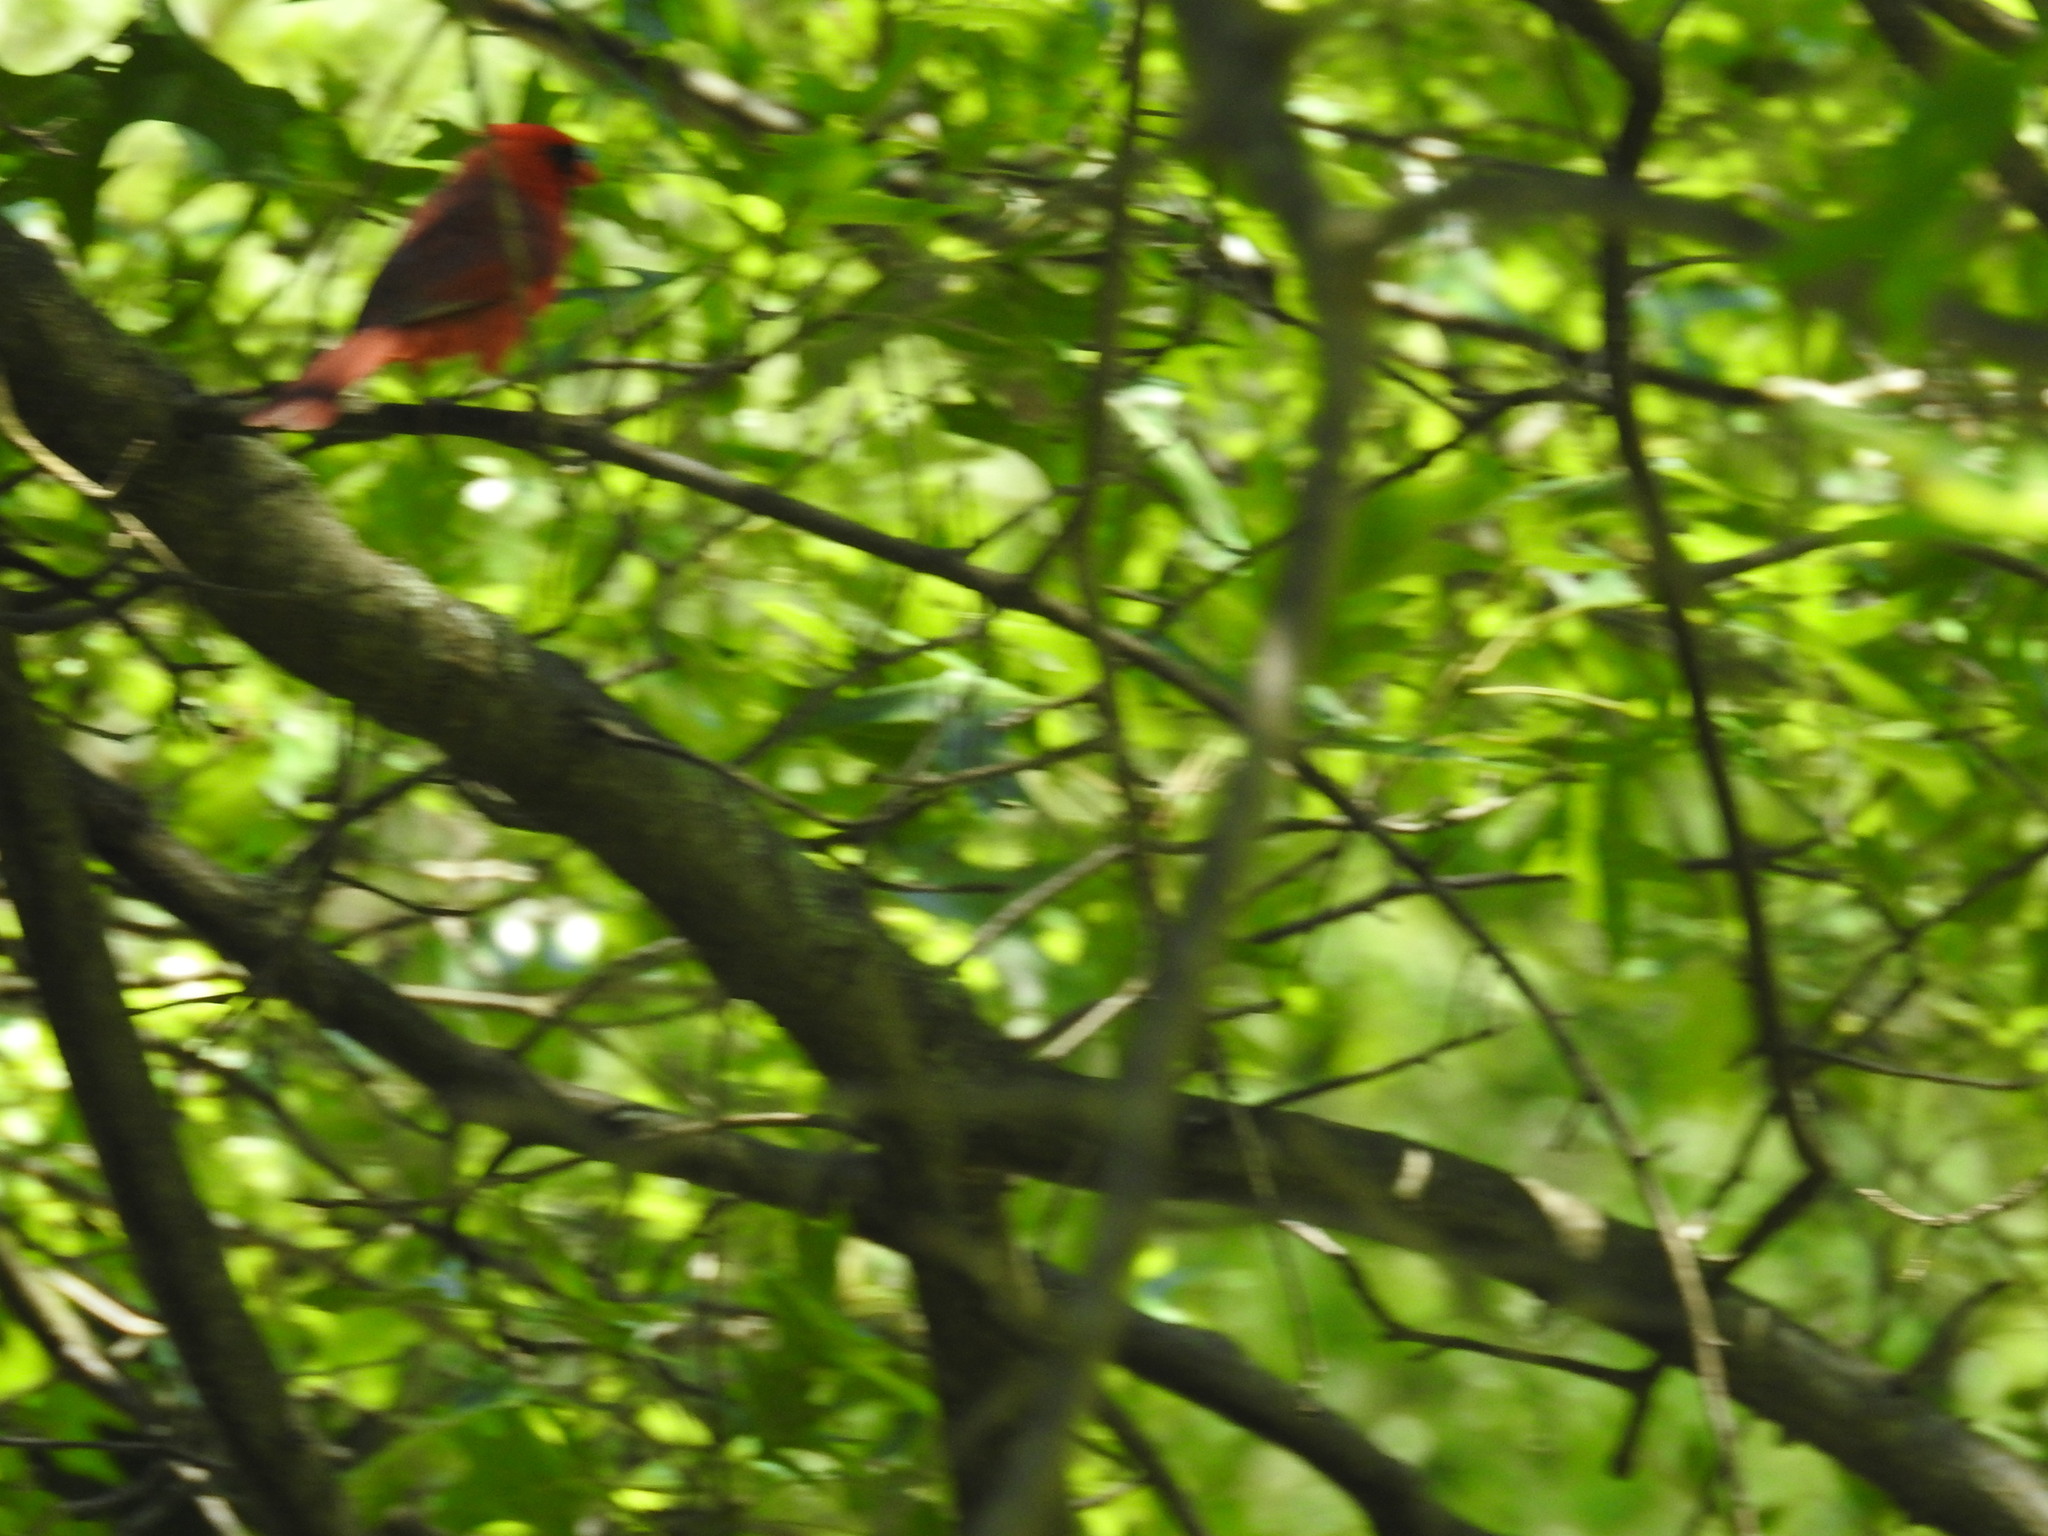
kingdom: Animalia
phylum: Chordata
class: Aves
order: Passeriformes
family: Cardinalidae
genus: Cardinalis
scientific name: Cardinalis cardinalis
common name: Northern cardinal
